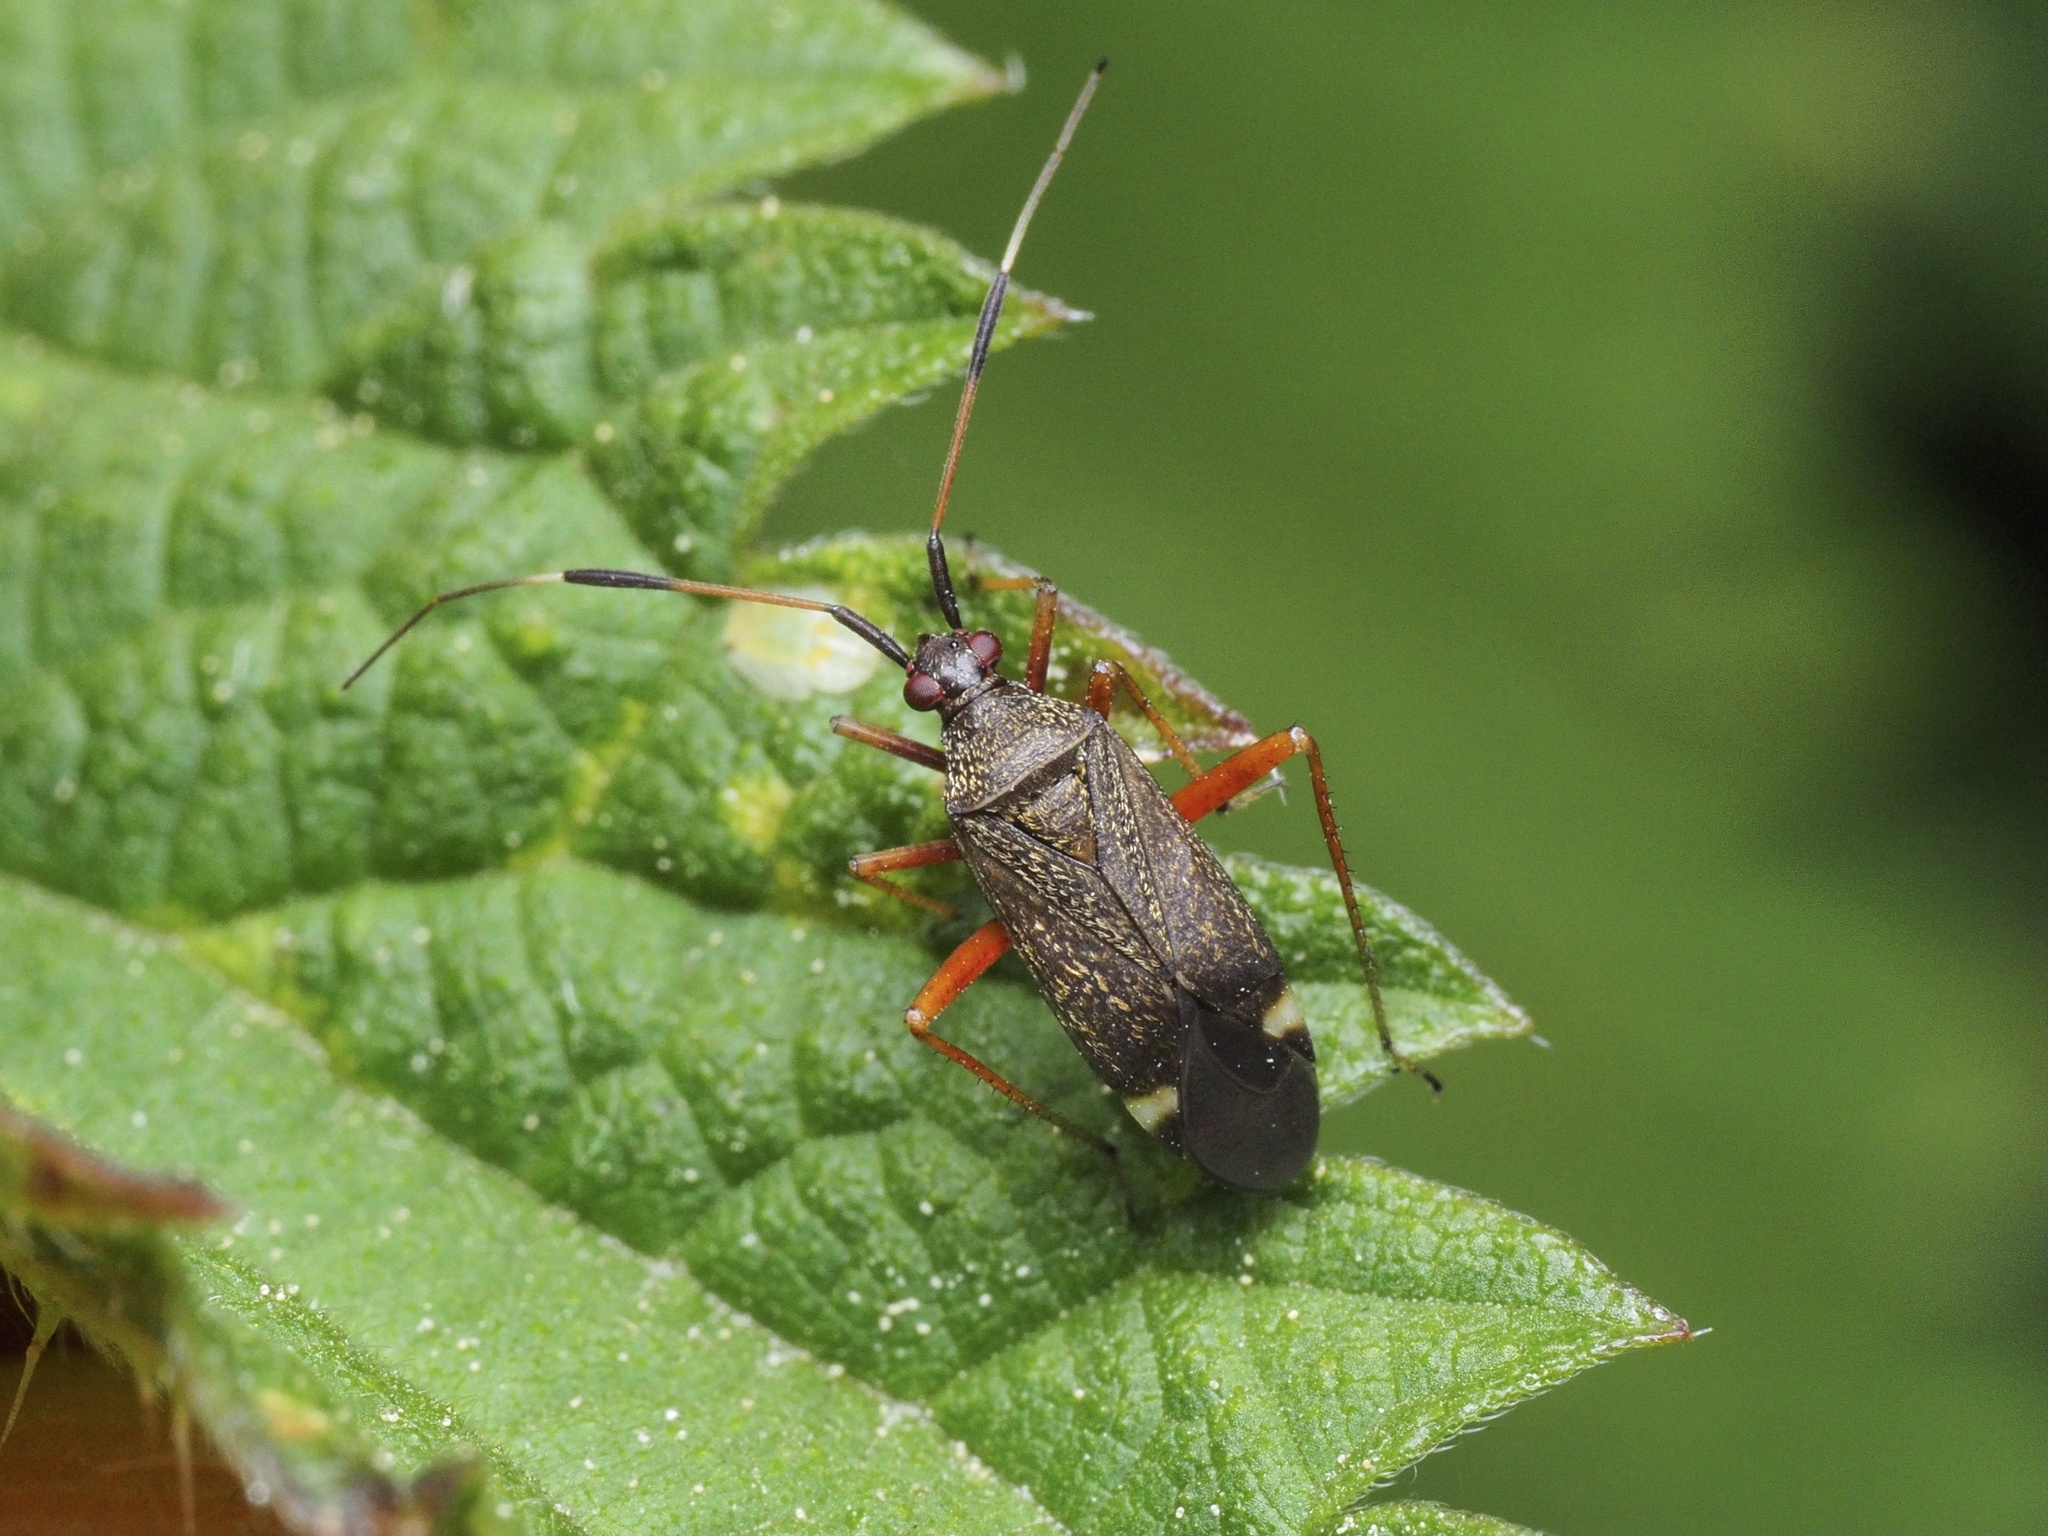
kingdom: Animalia
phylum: Arthropoda
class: Insecta
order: Hemiptera
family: Miridae
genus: Closterotomus
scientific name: Closterotomus biclavatus
